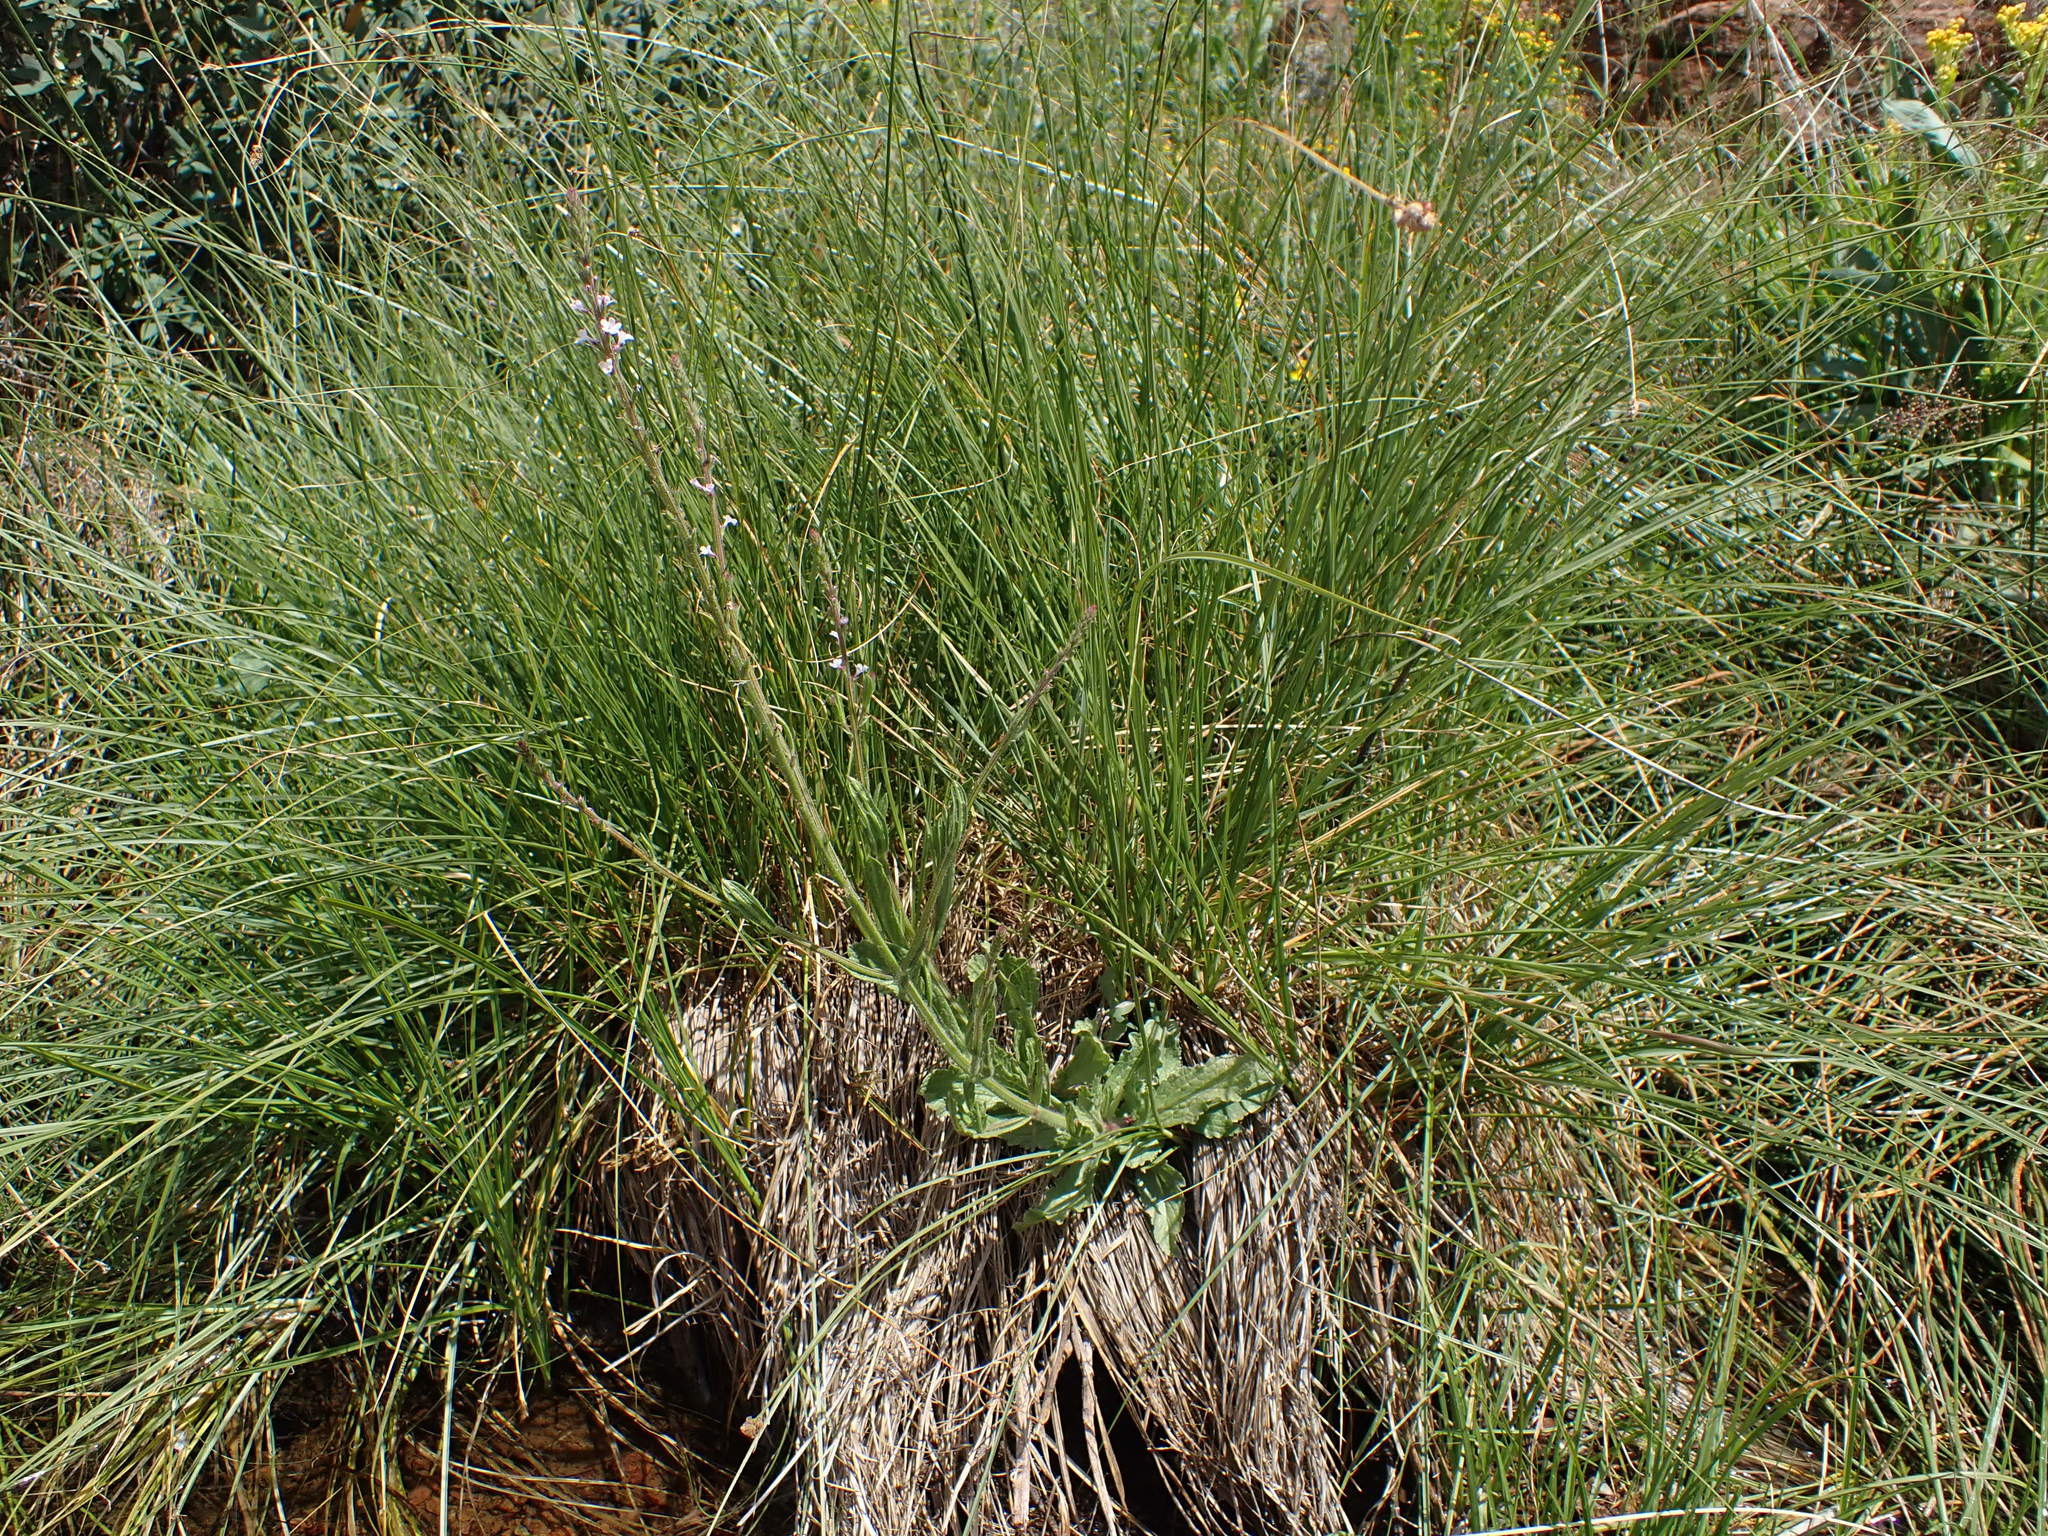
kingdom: Plantae
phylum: Tracheophyta
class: Magnoliopsida
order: Lamiales
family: Verbenaceae
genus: Verbena
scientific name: Verbena californica
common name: California vervain
